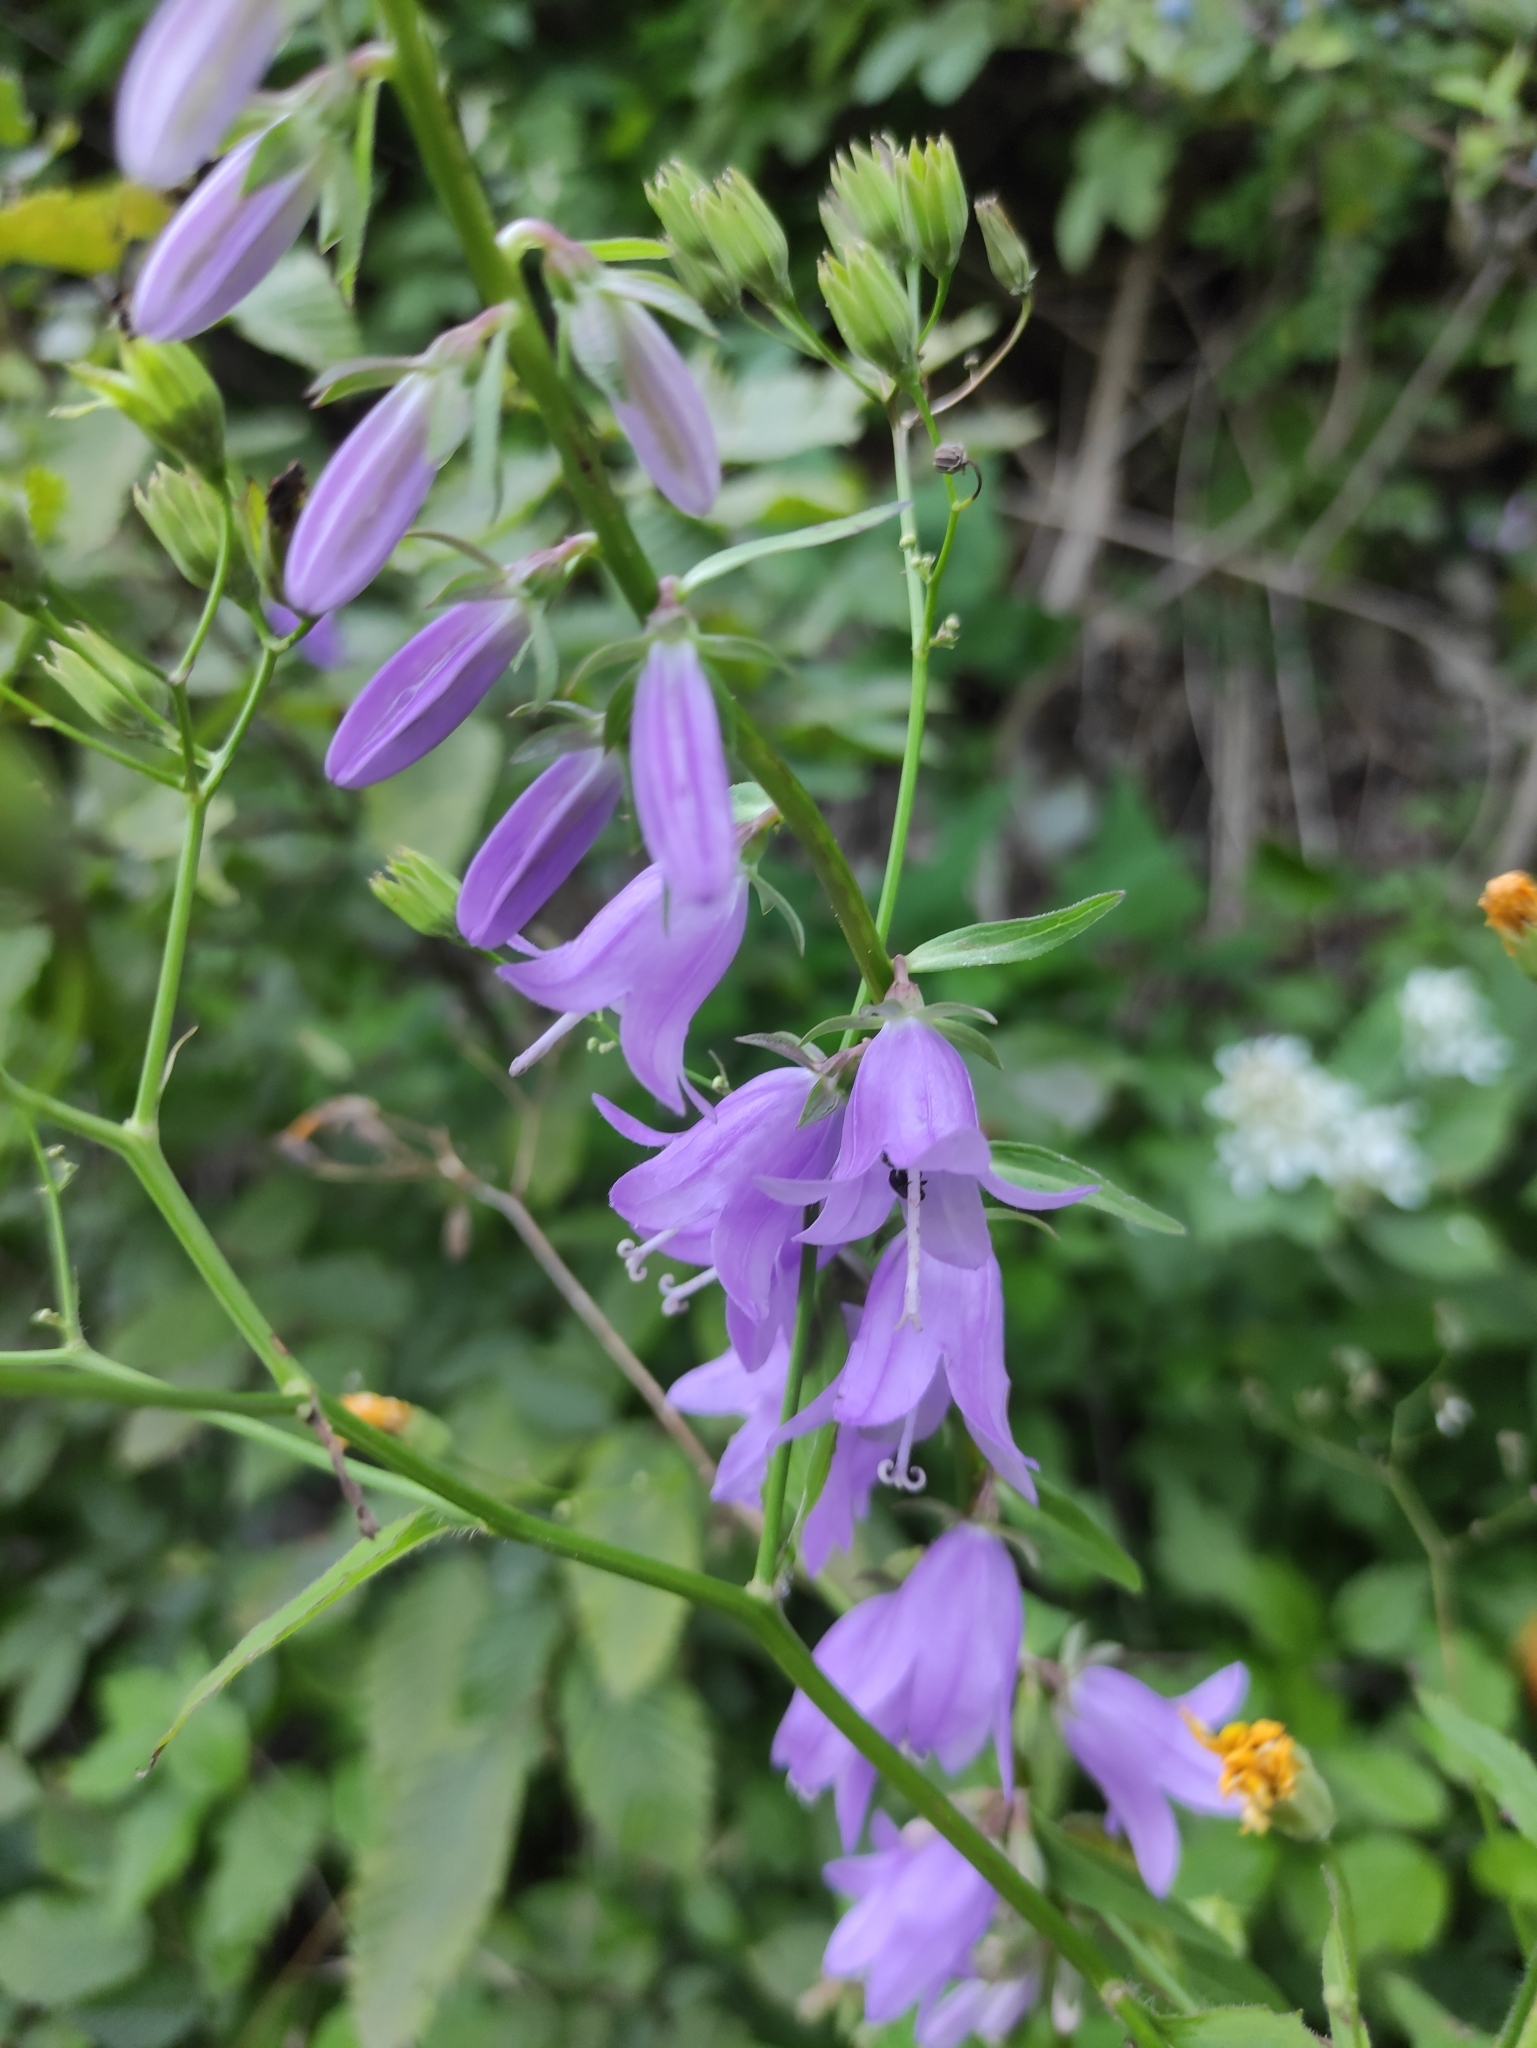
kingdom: Plantae
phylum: Tracheophyta
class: Magnoliopsida
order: Asterales
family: Campanulaceae
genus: Campanula
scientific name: Campanula rapunculoides
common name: Creeping bellflower
